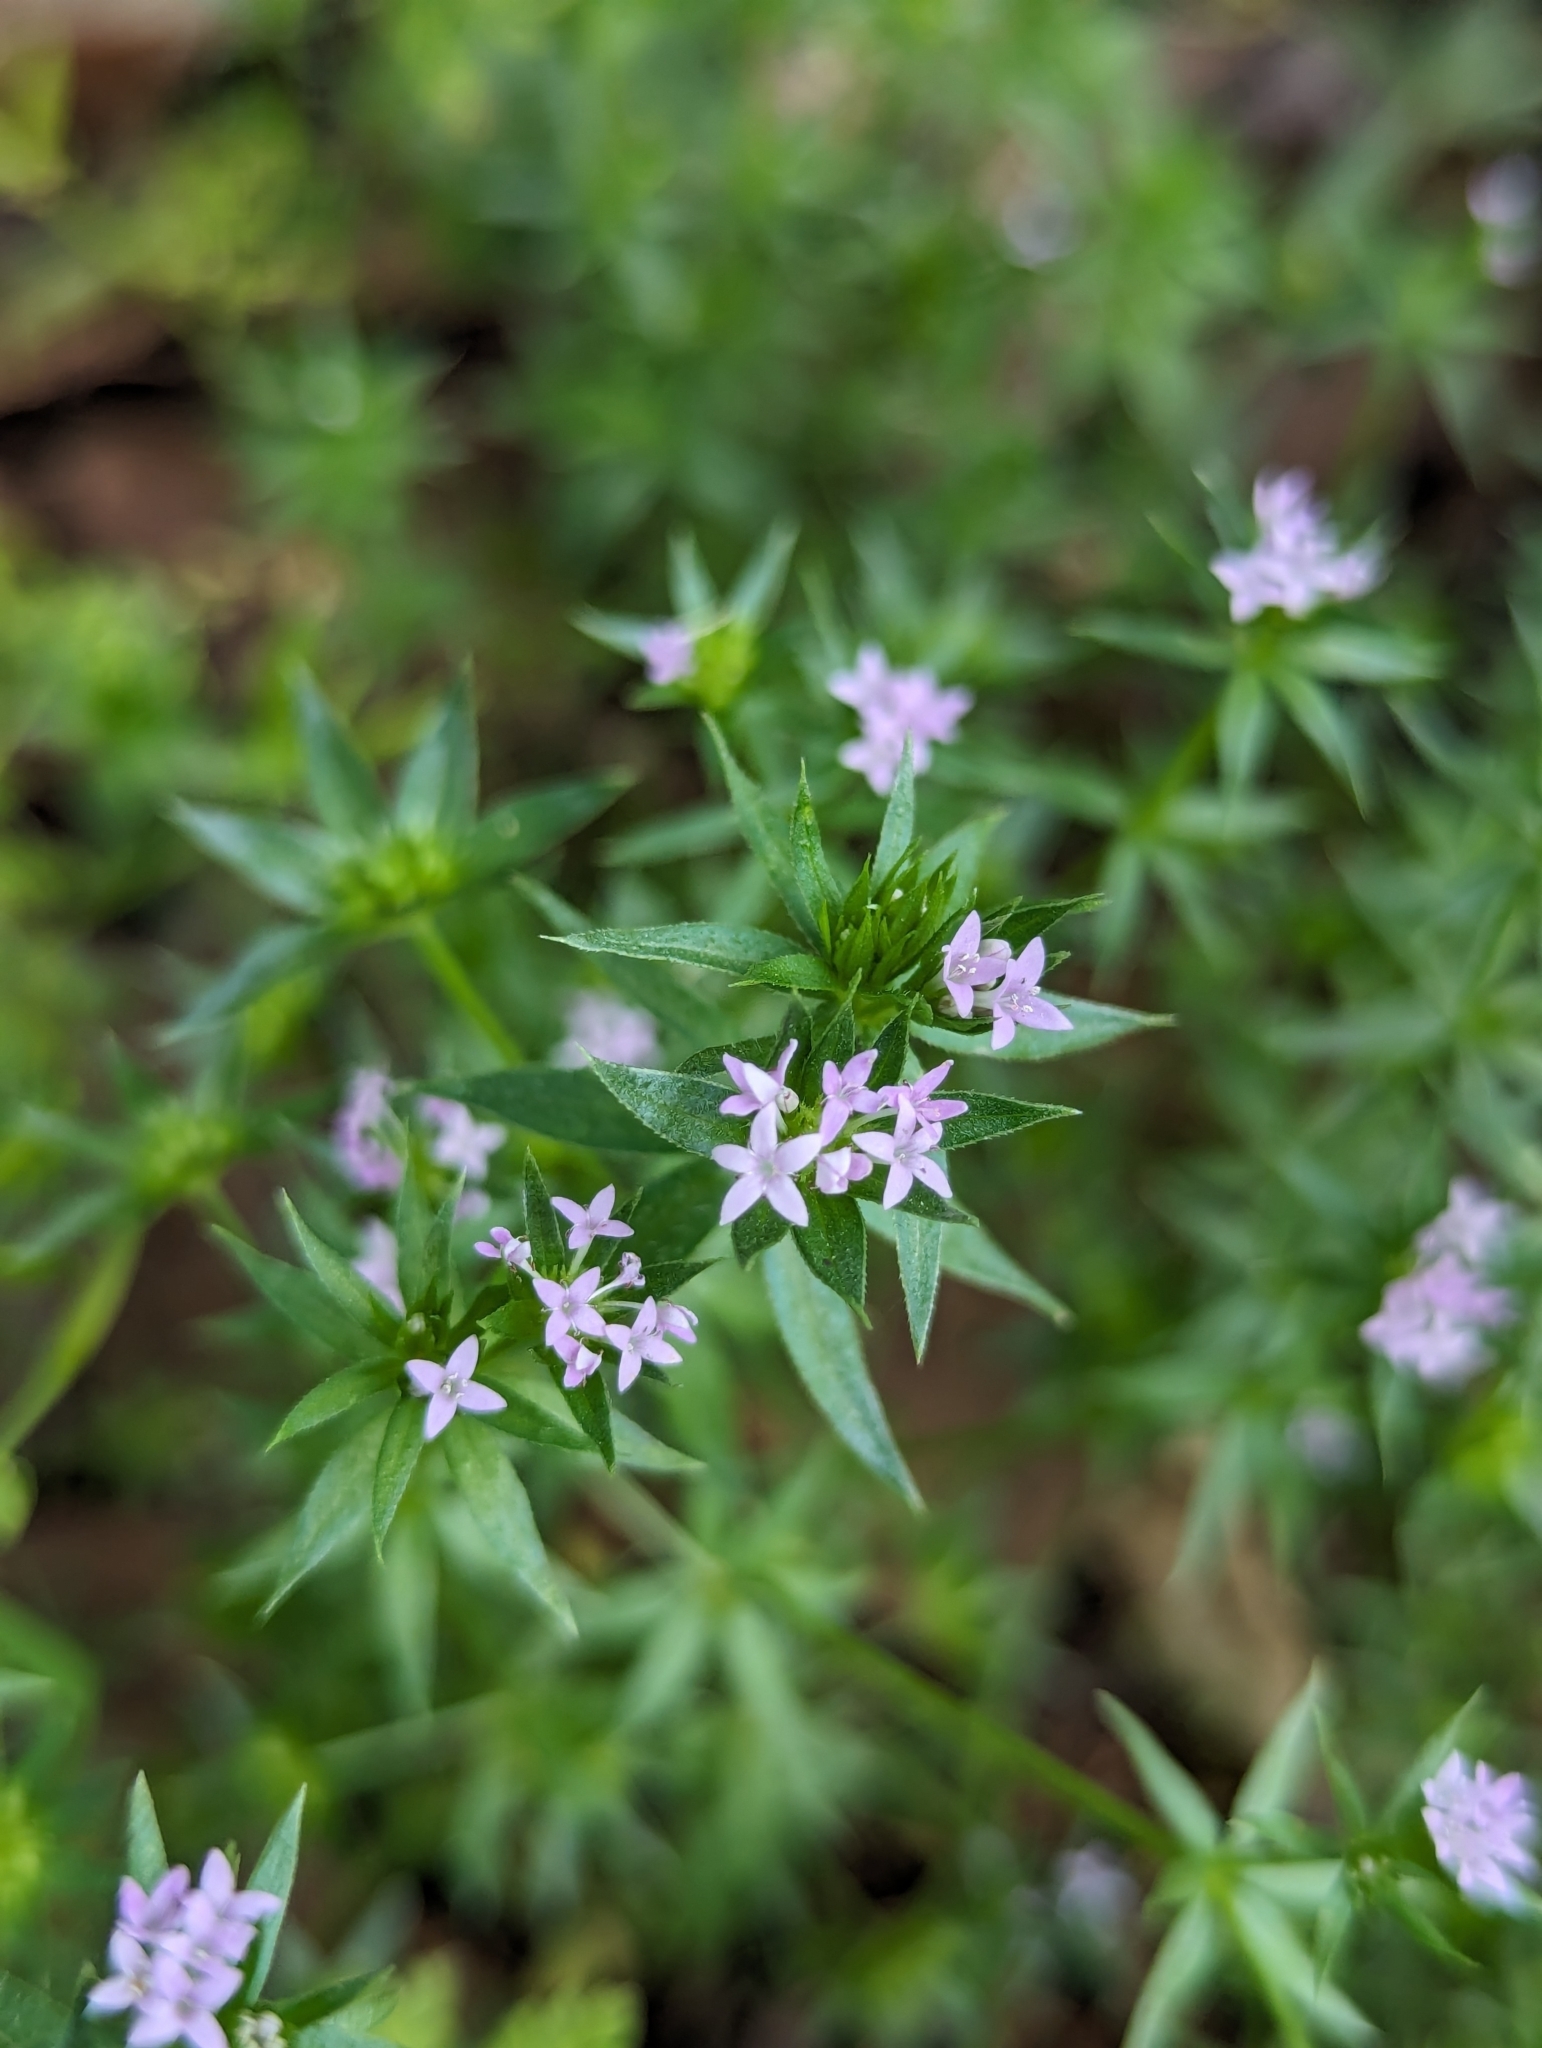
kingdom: Plantae
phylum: Tracheophyta
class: Magnoliopsida
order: Gentianales
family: Rubiaceae
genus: Sherardia
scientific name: Sherardia arvensis
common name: Field madder
